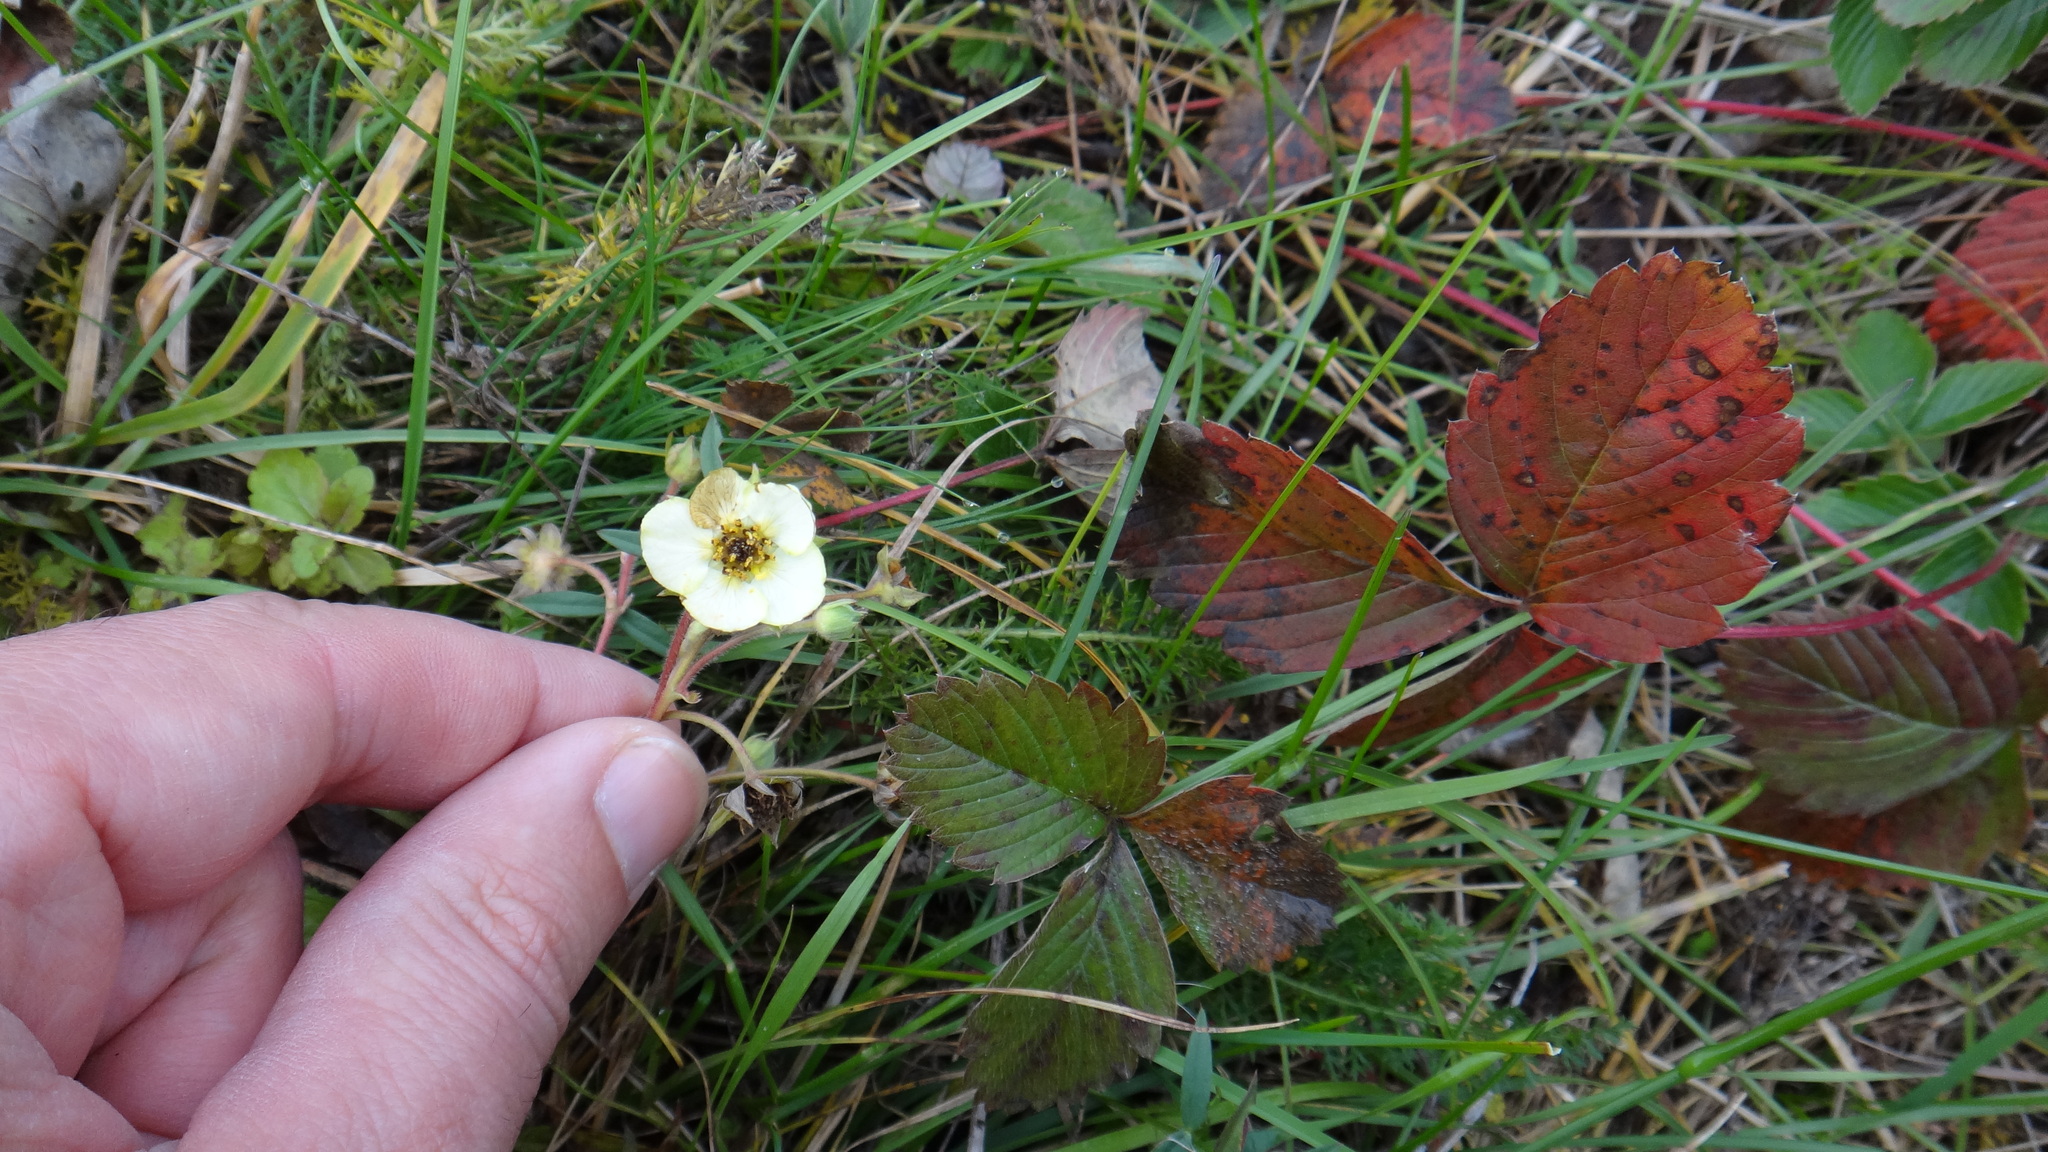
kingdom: Plantae
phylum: Tracheophyta
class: Magnoliopsida
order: Rosales
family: Rosaceae
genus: Fragaria
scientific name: Fragaria viridis
